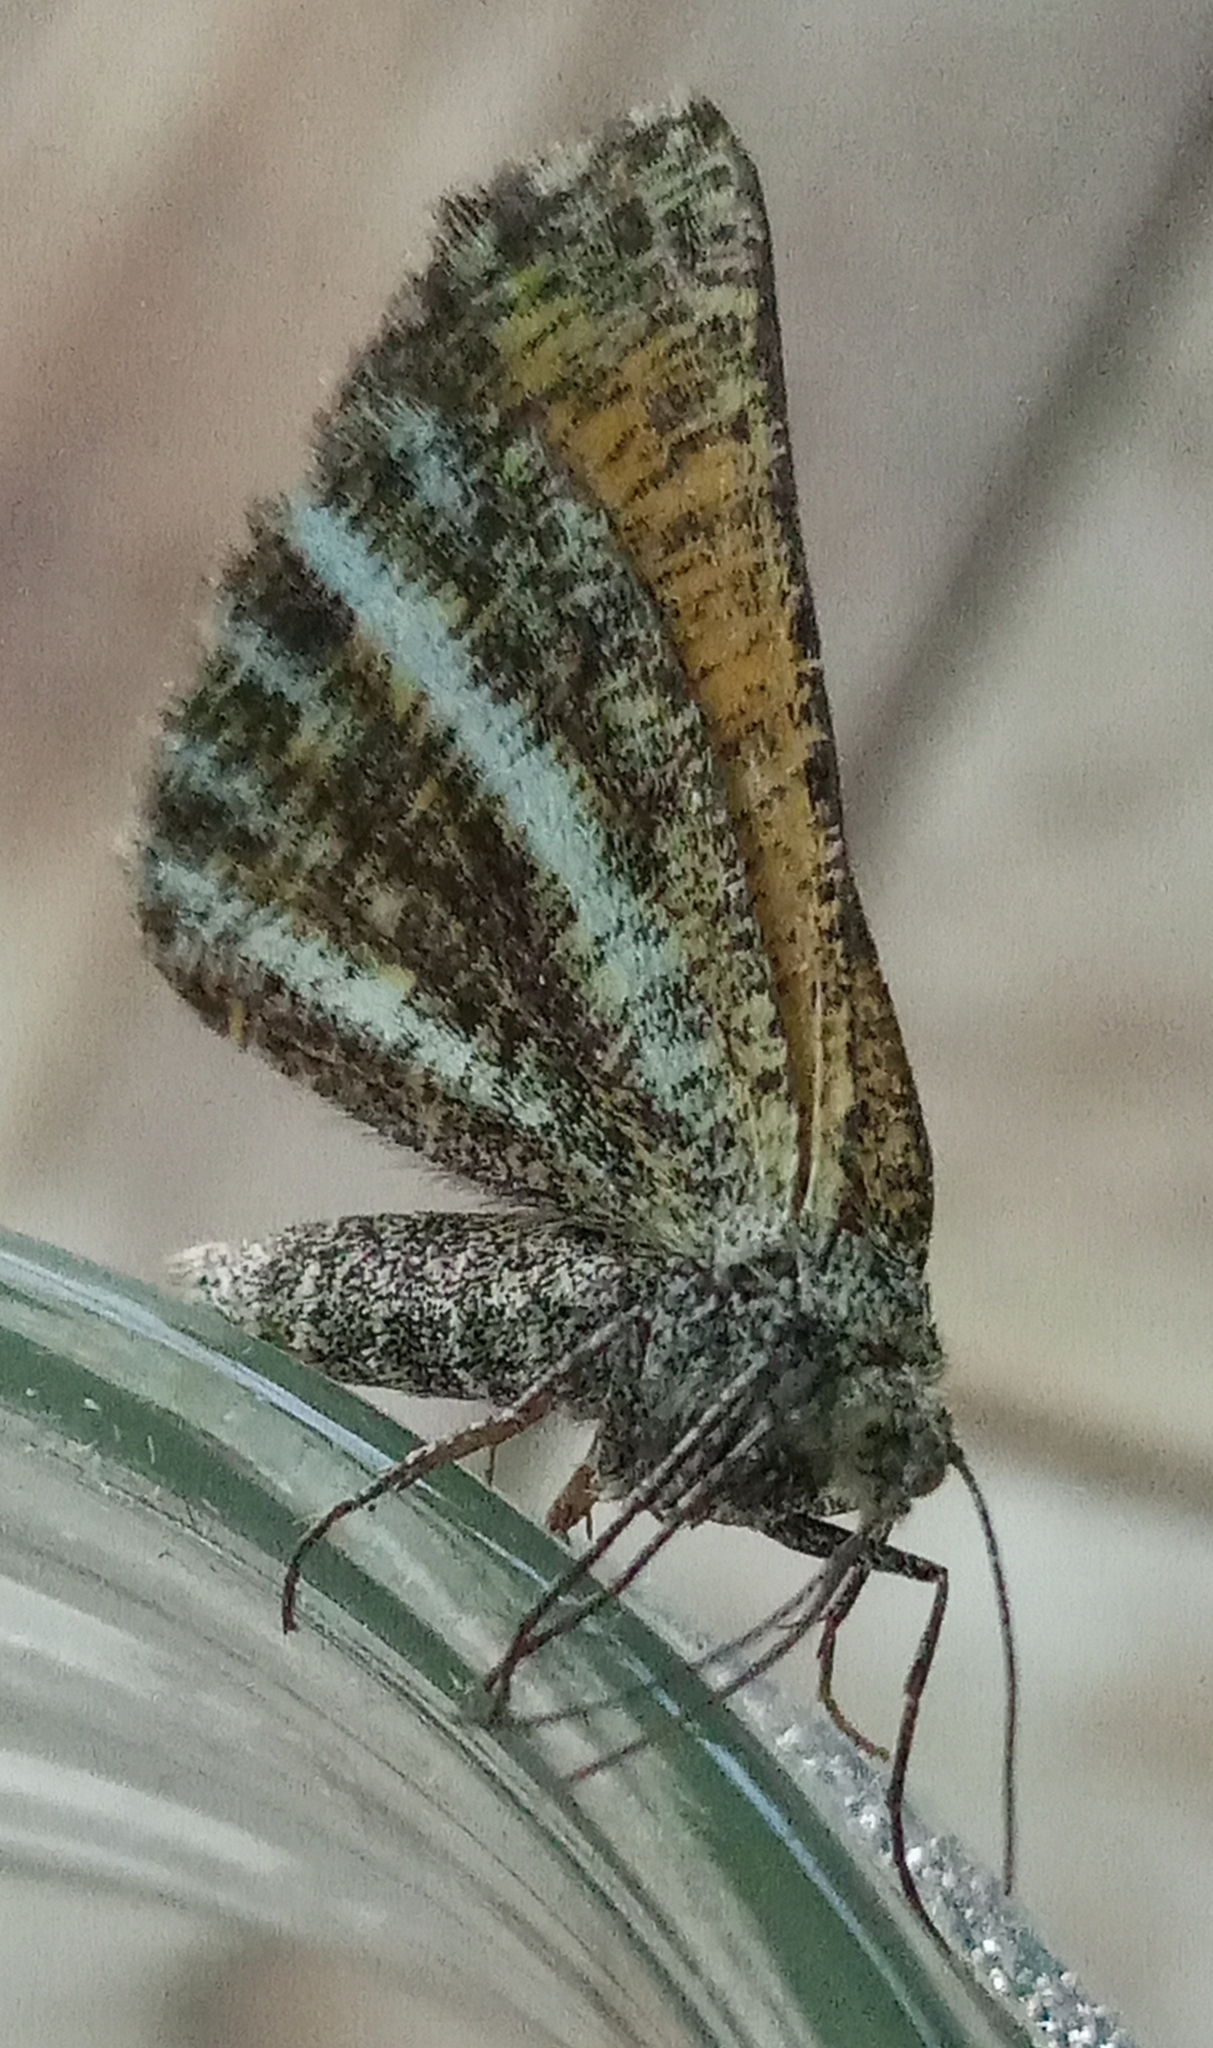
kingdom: Animalia
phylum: Arthropoda
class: Insecta
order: Lepidoptera
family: Geometridae
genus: Isturgia
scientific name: Isturgia limbaria
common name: Frosted yellow
